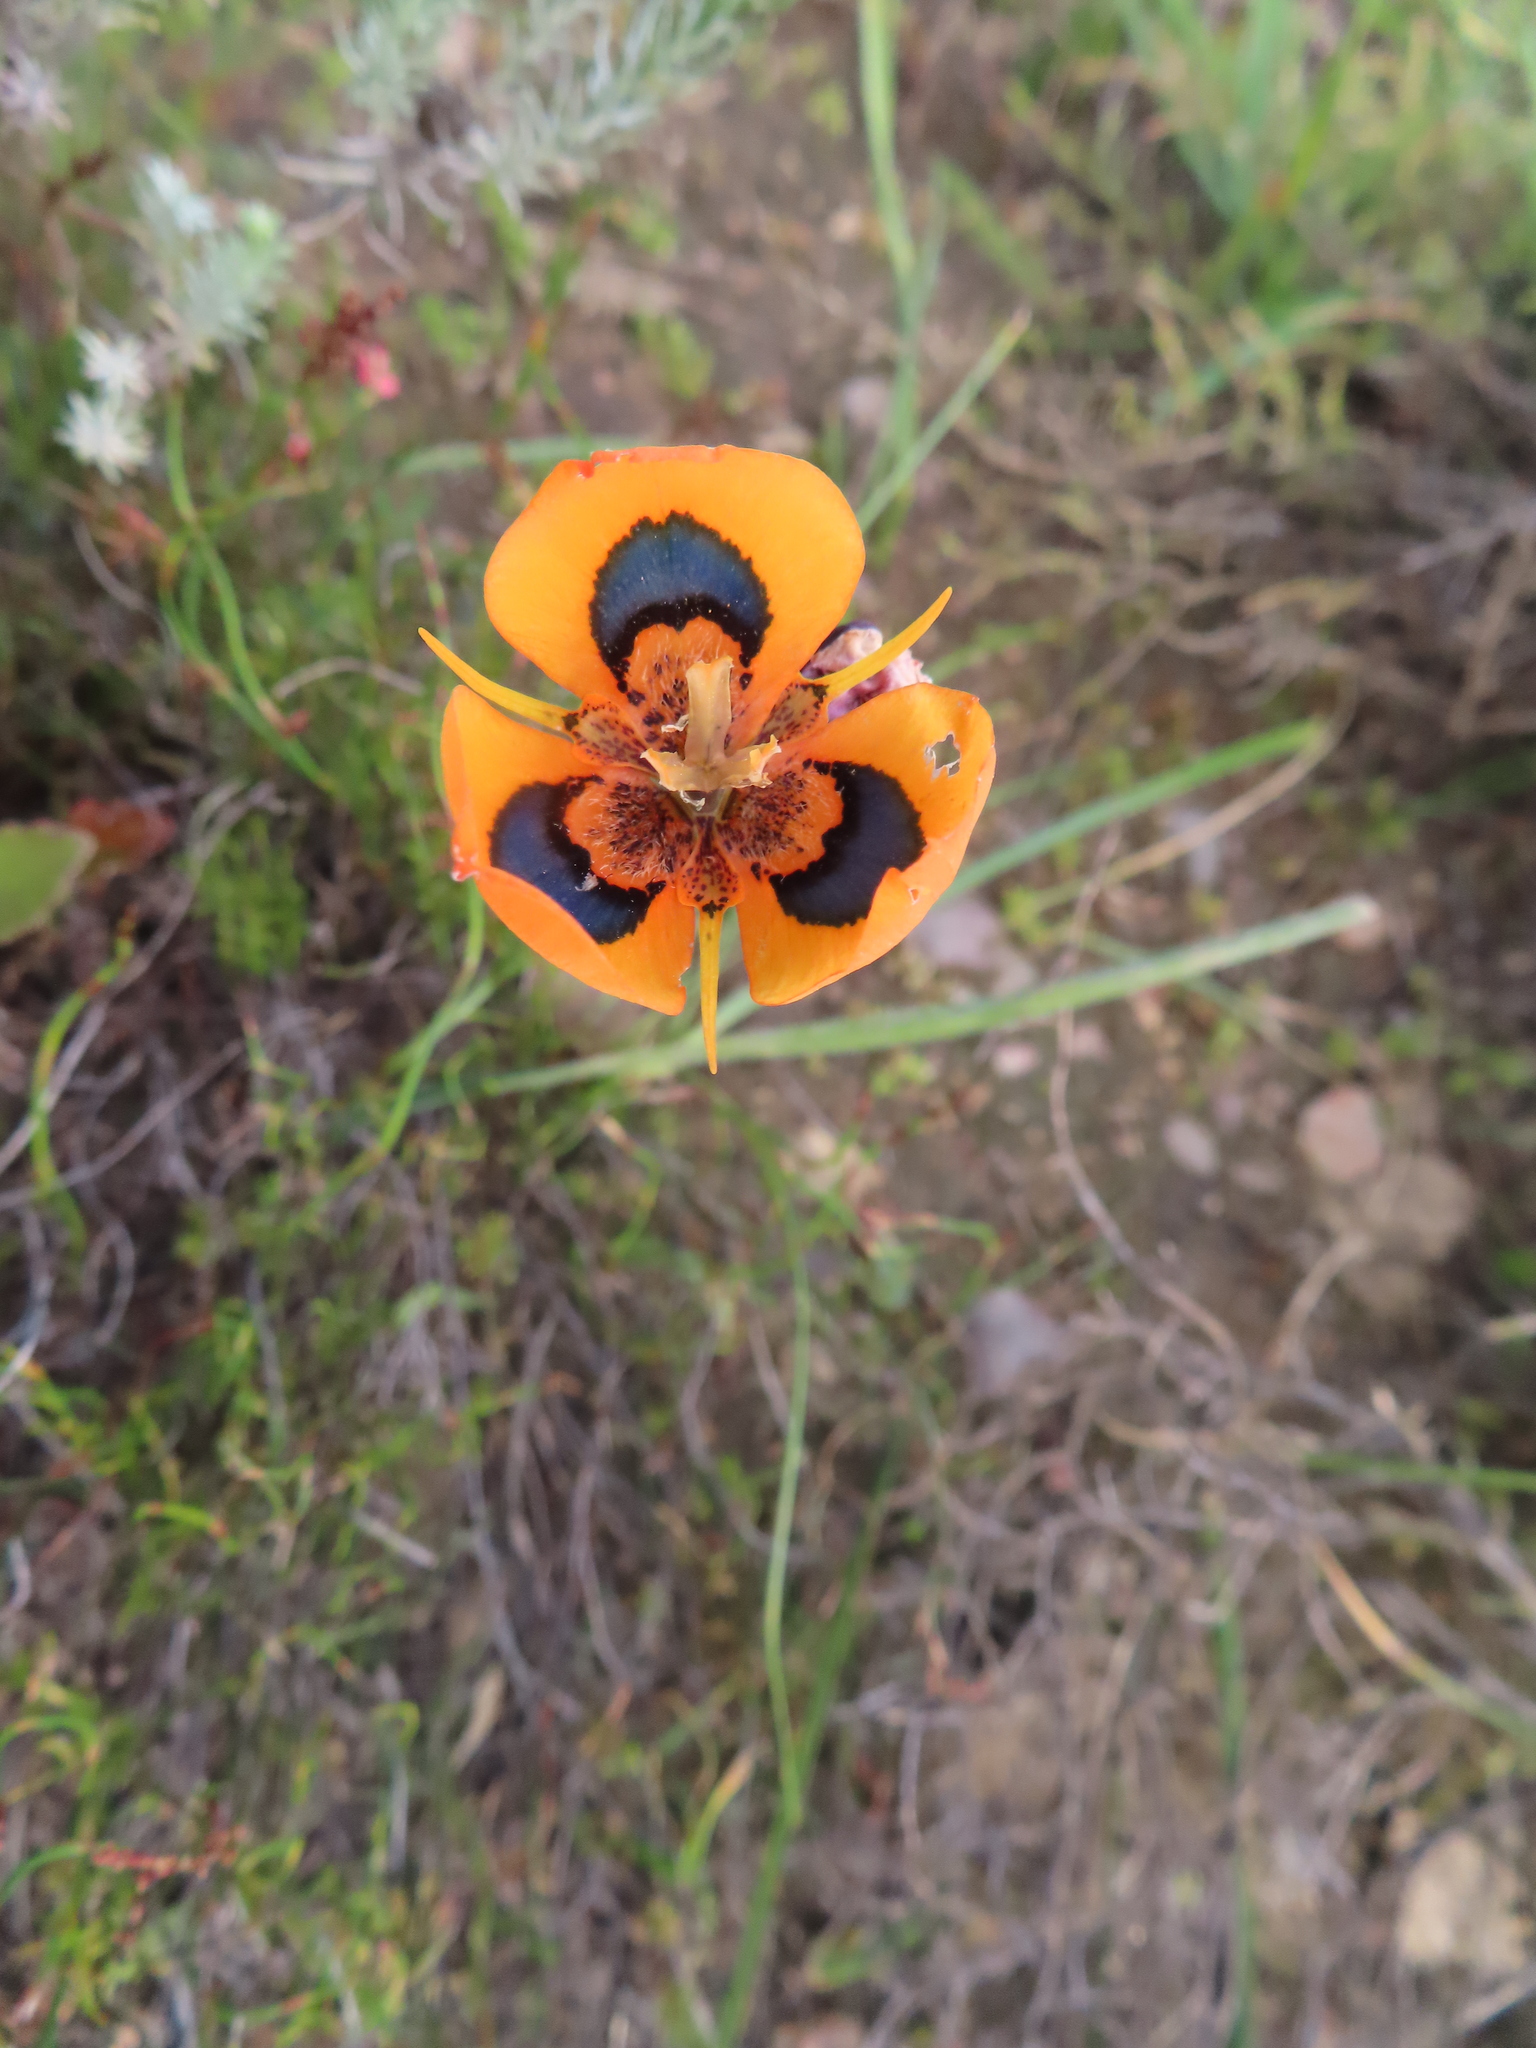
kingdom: Plantae
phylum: Tracheophyta
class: Liliopsida
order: Asparagales
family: Iridaceae
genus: Moraea
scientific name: Moraea tulbaghensis
